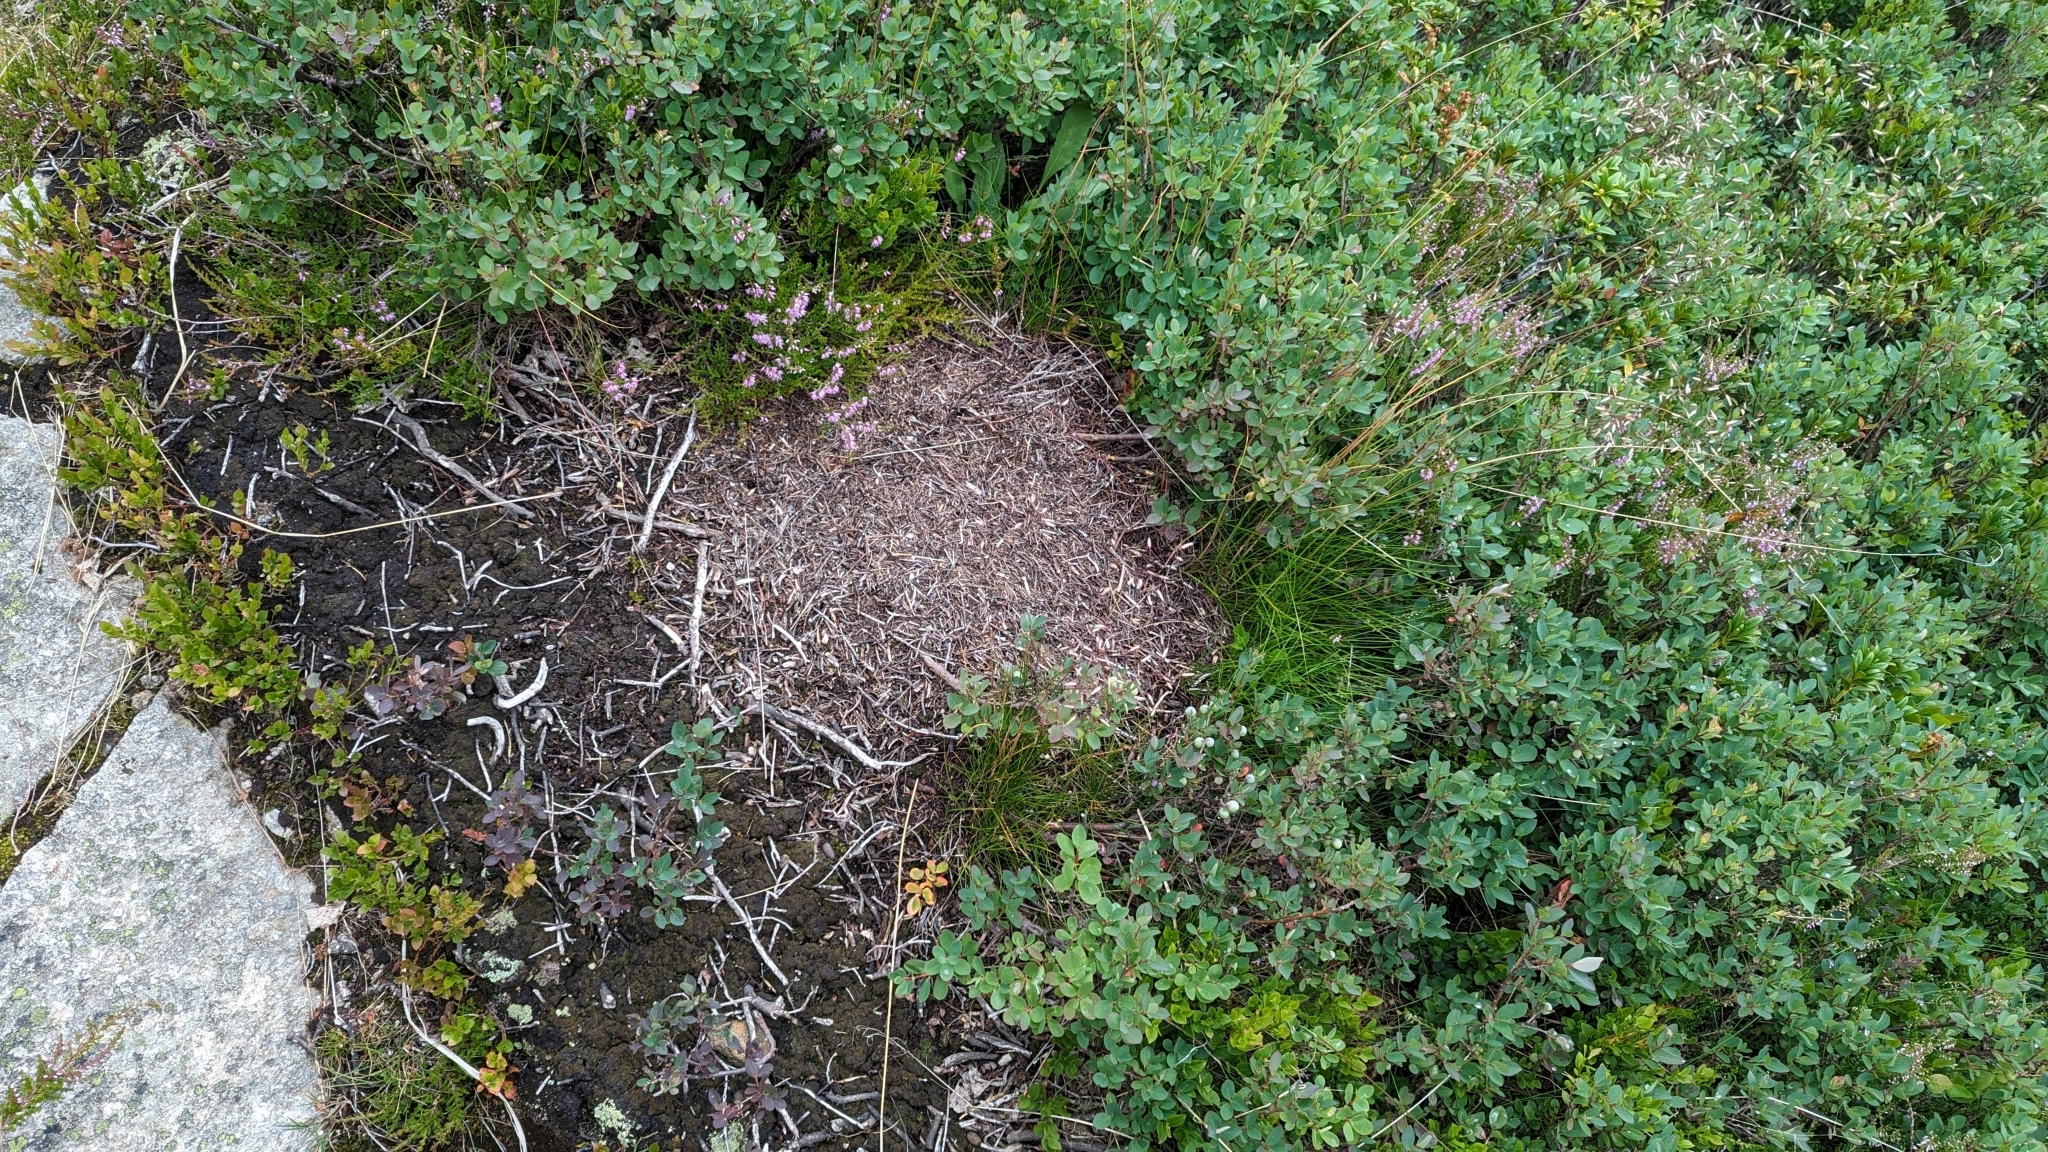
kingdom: Animalia
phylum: Arthropoda
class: Insecta
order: Hymenoptera
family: Formicidae
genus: Formica
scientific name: Formica lugubris
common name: Sinister mound ant
